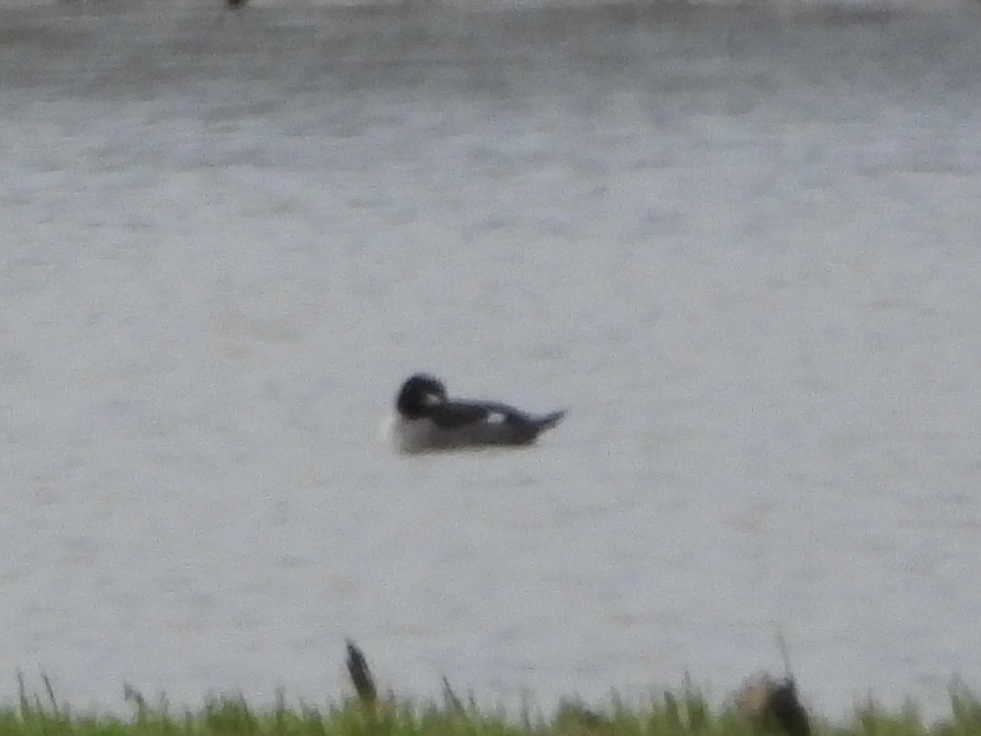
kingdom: Animalia
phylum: Chordata
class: Aves
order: Anseriformes
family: Anatidae
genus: Bucephala
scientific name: Bucephala albeola
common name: Bufflehead
